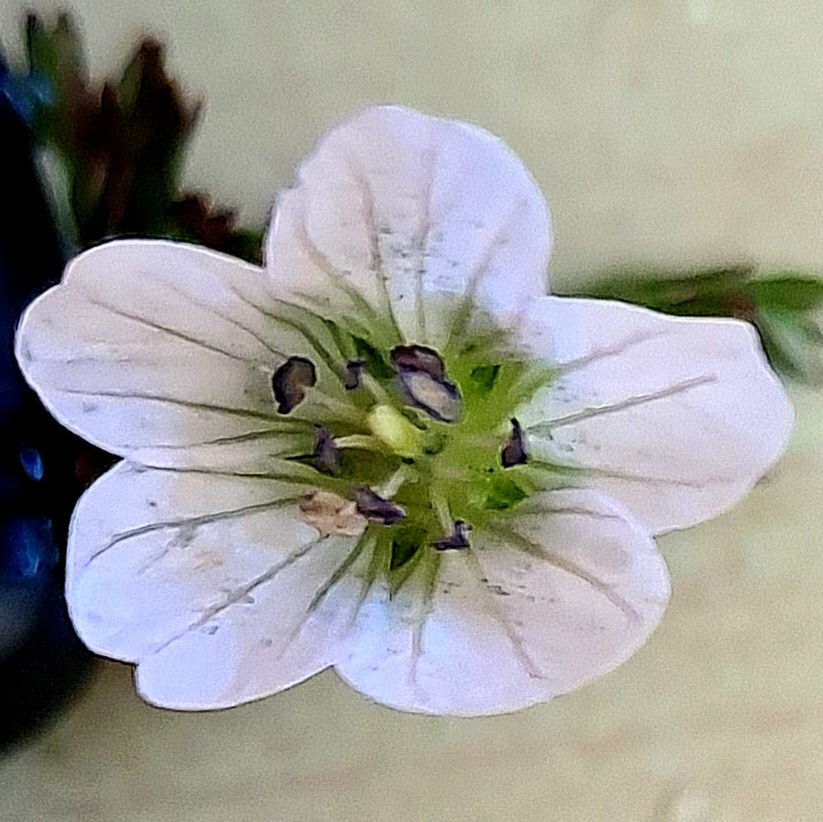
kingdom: Plantae
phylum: Tracheophyta
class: Magnoliopsida
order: Geraniales
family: Geraniaceae
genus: Geranium
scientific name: Geranium incanum
